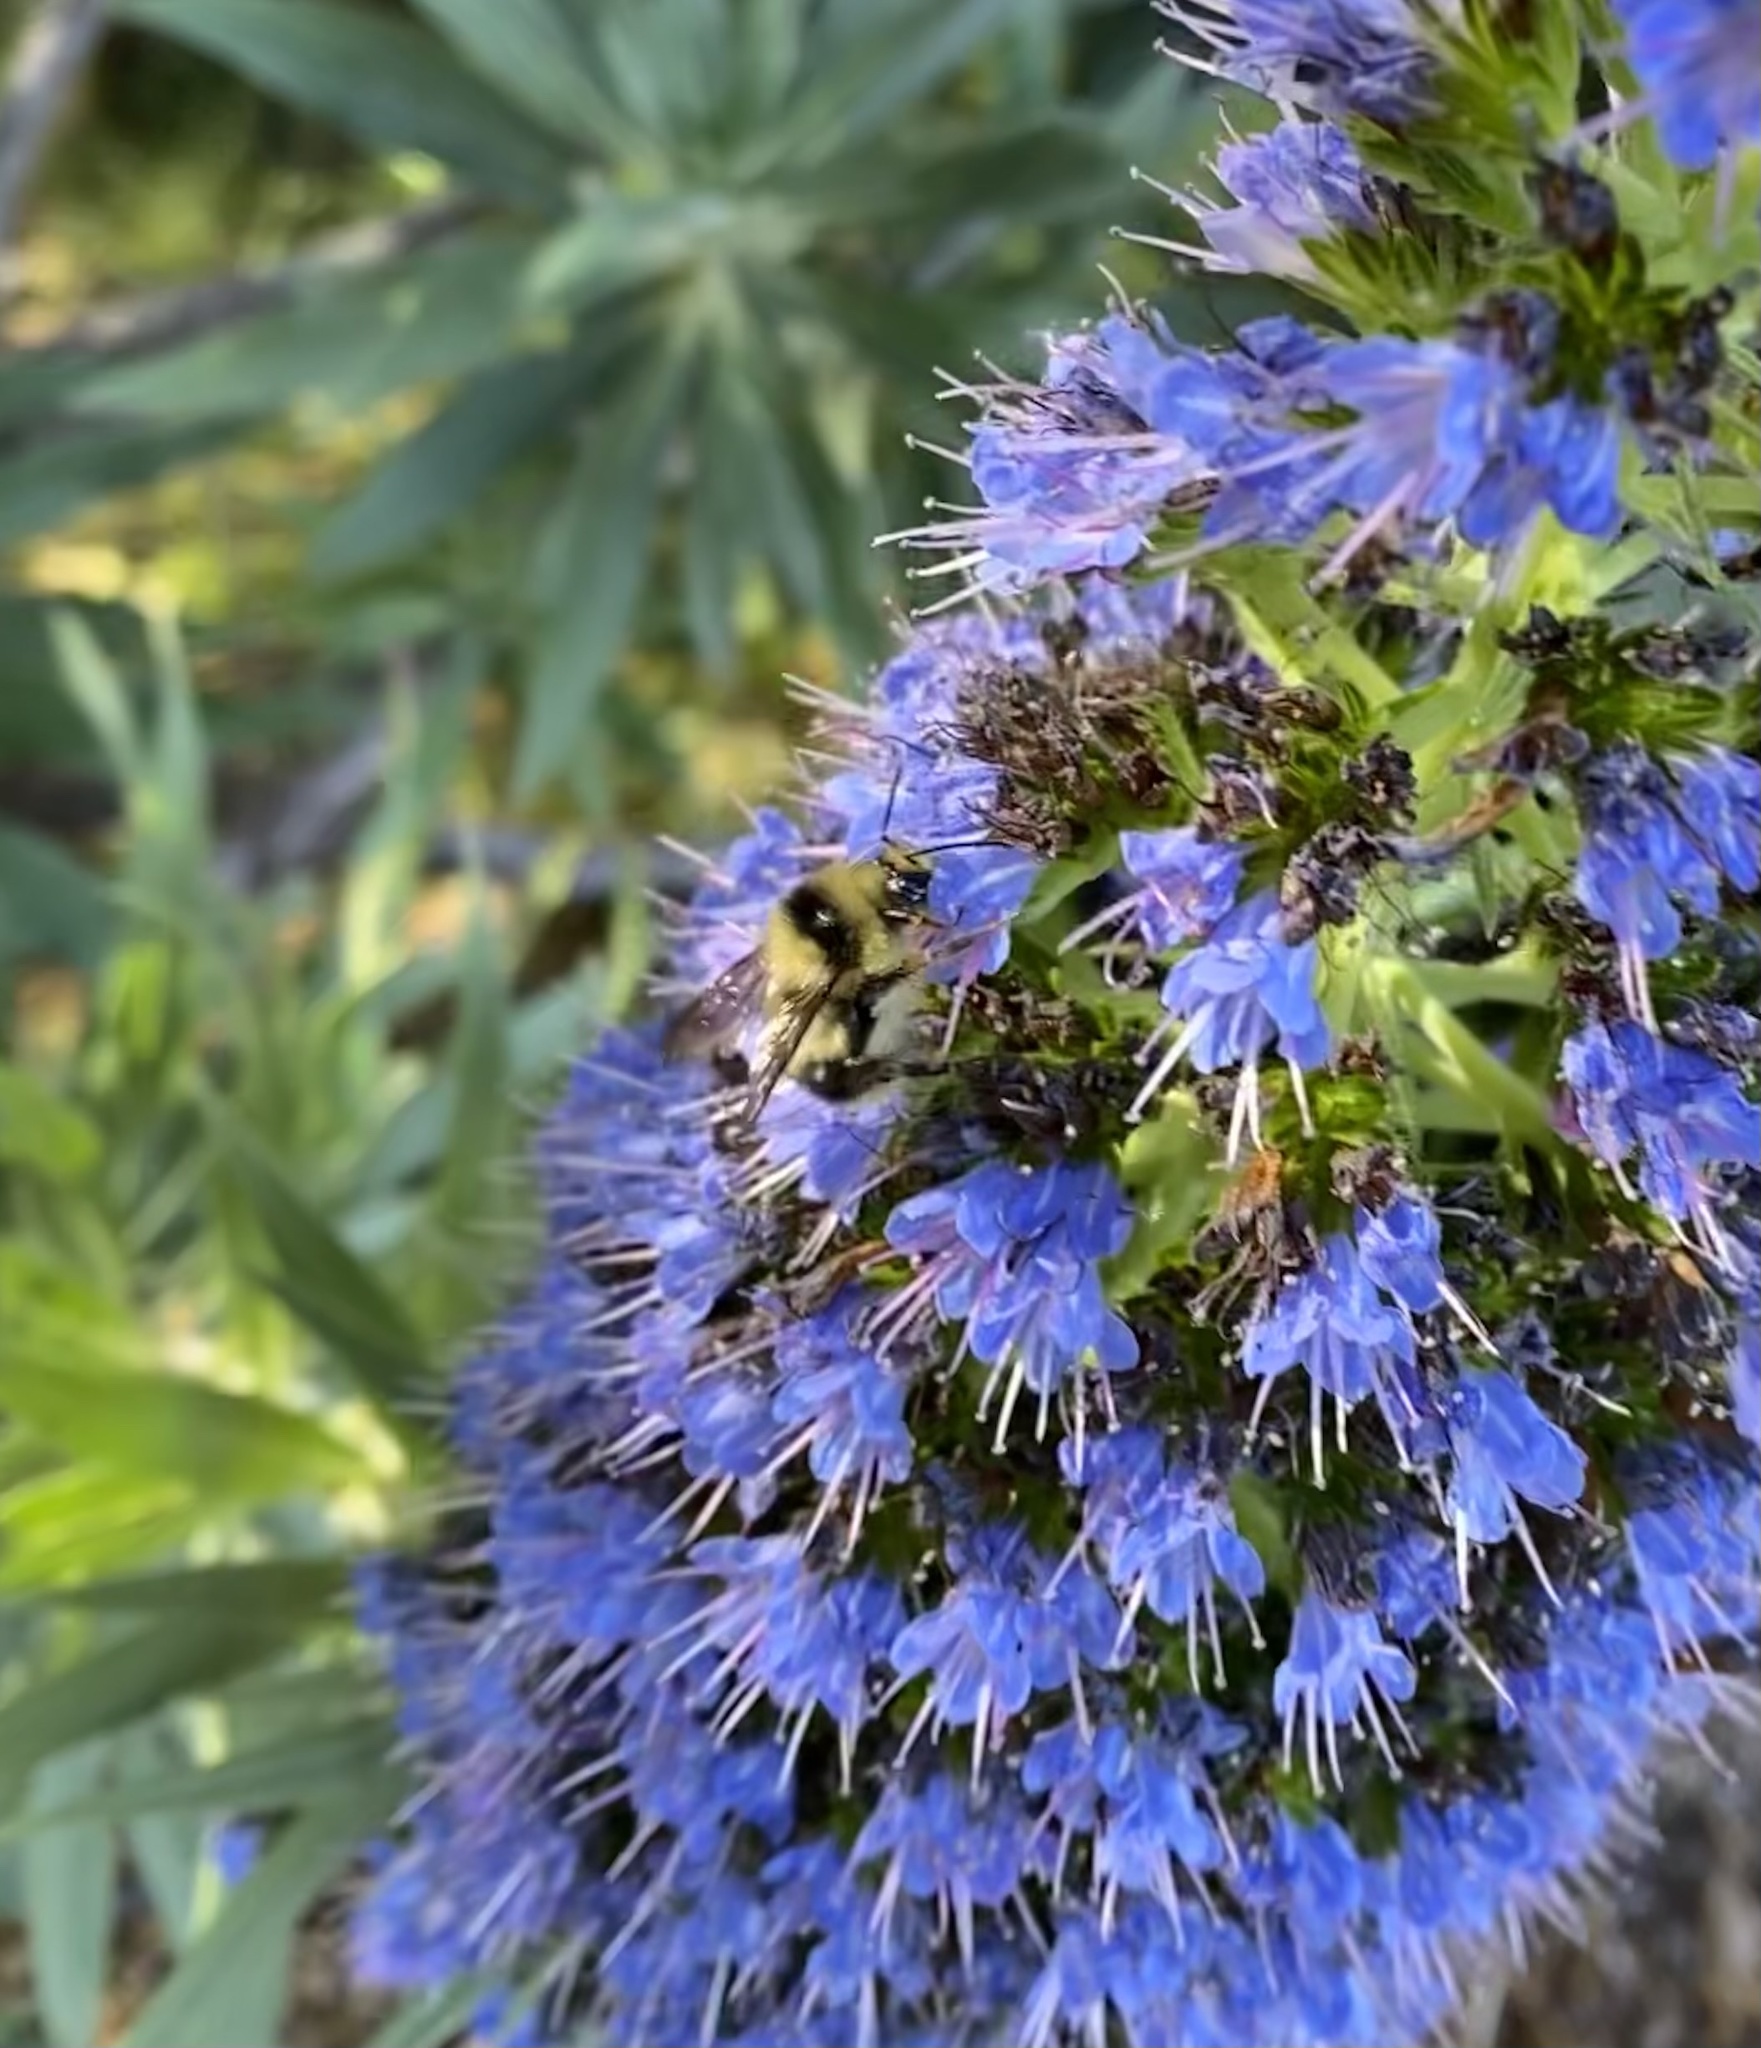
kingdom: Animalia
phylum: Arthropoda
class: Insecta
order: Hymenoptera
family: Apidae
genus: Bombus
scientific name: Bombus melanopygus
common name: Black tail bumble bee
